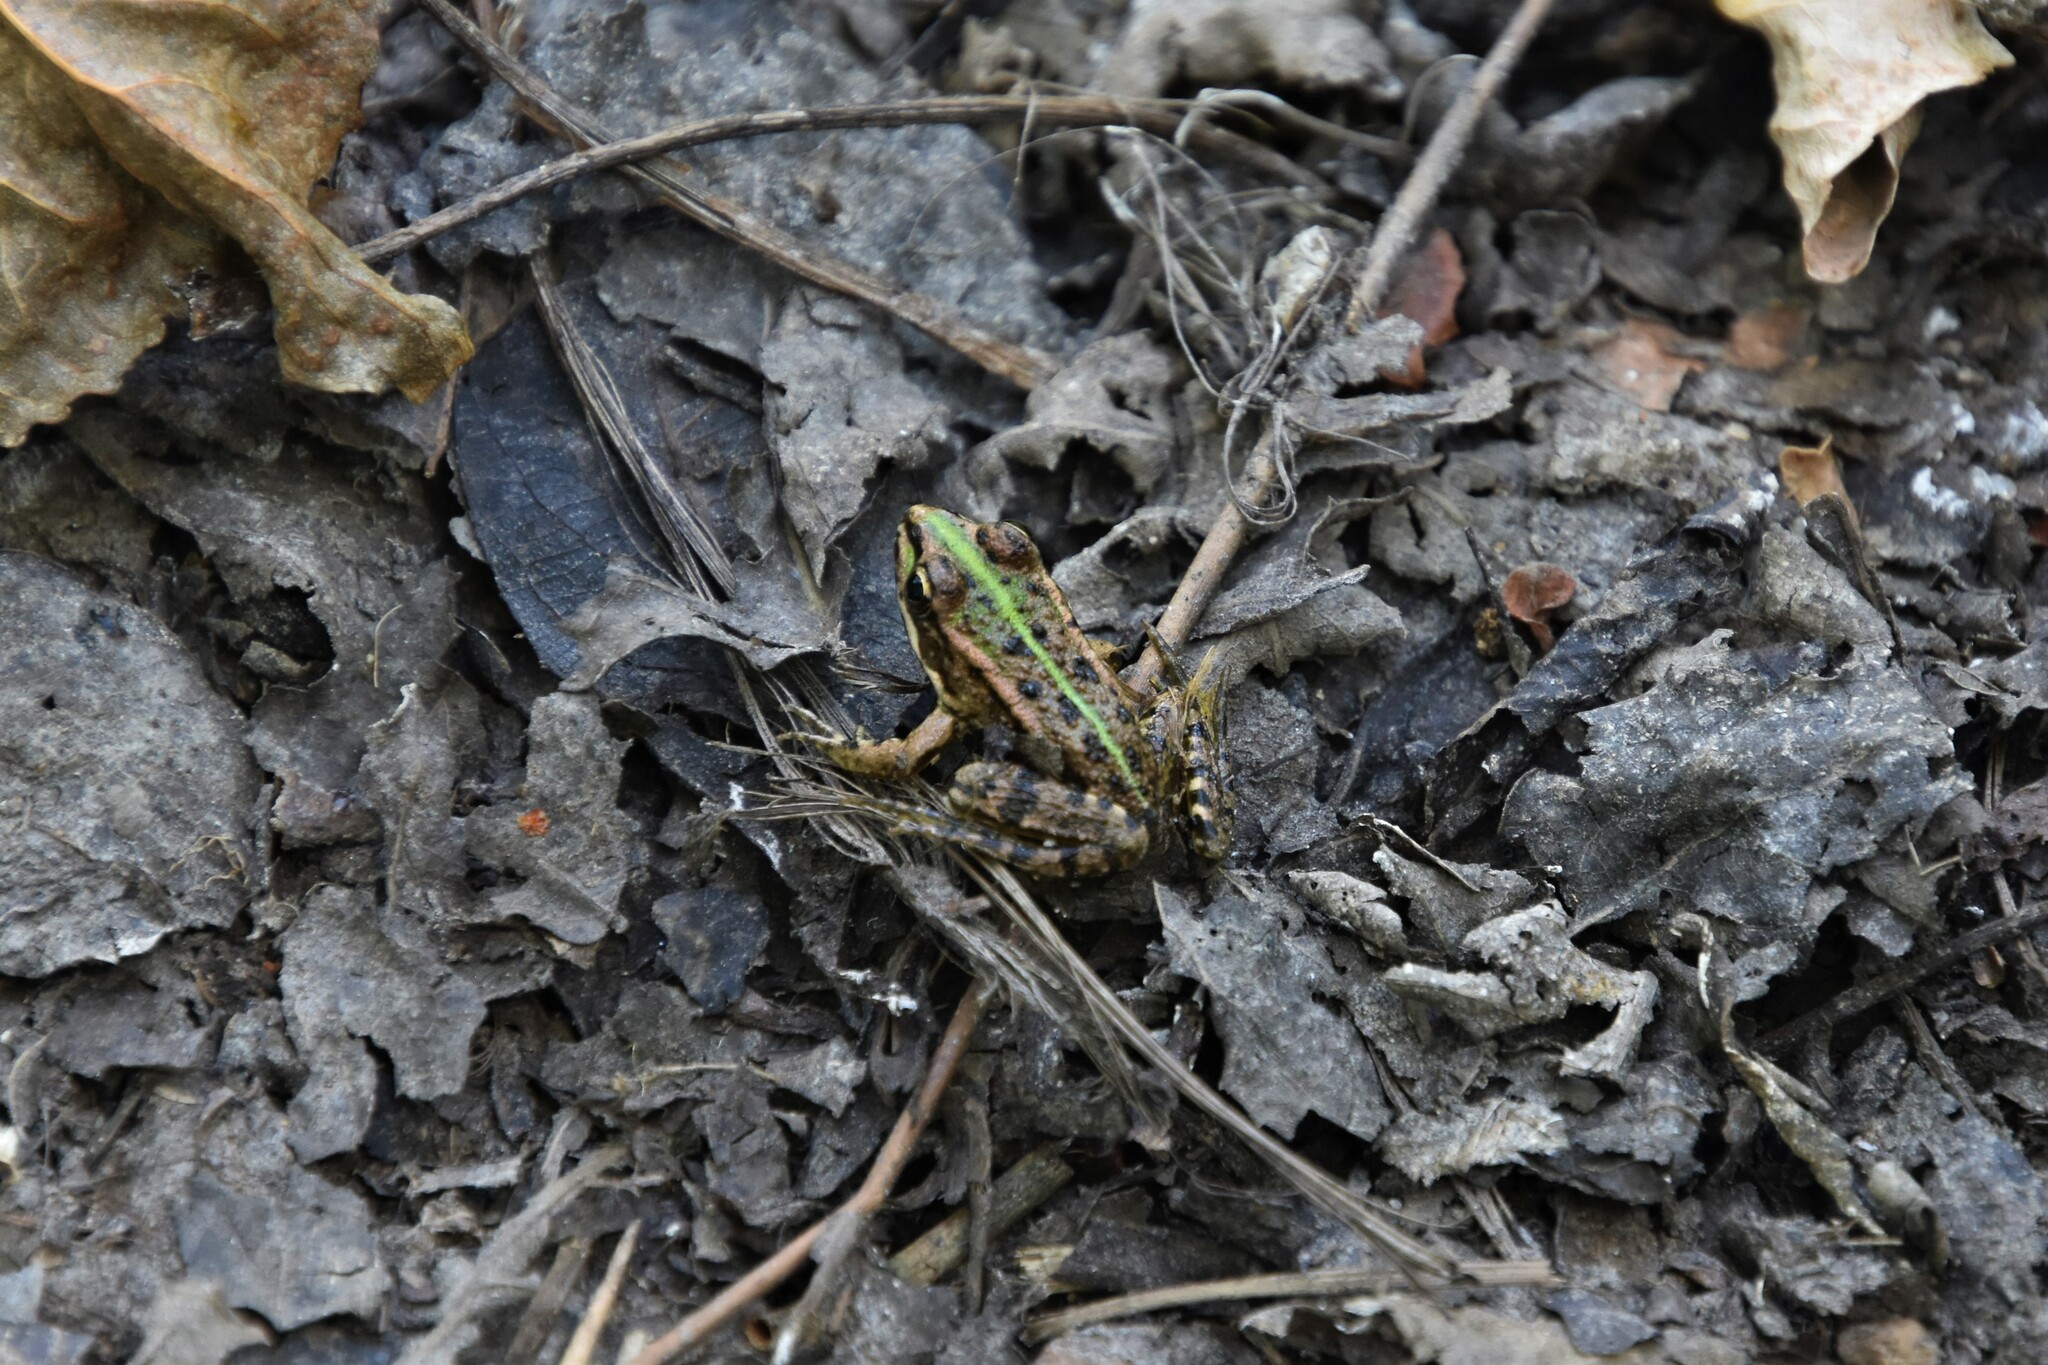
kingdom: Animalia
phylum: Chordata
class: Amphibia
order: Anura
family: Ranidae
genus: Pelophylax
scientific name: Pelophylax perezi
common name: Perez's frog
